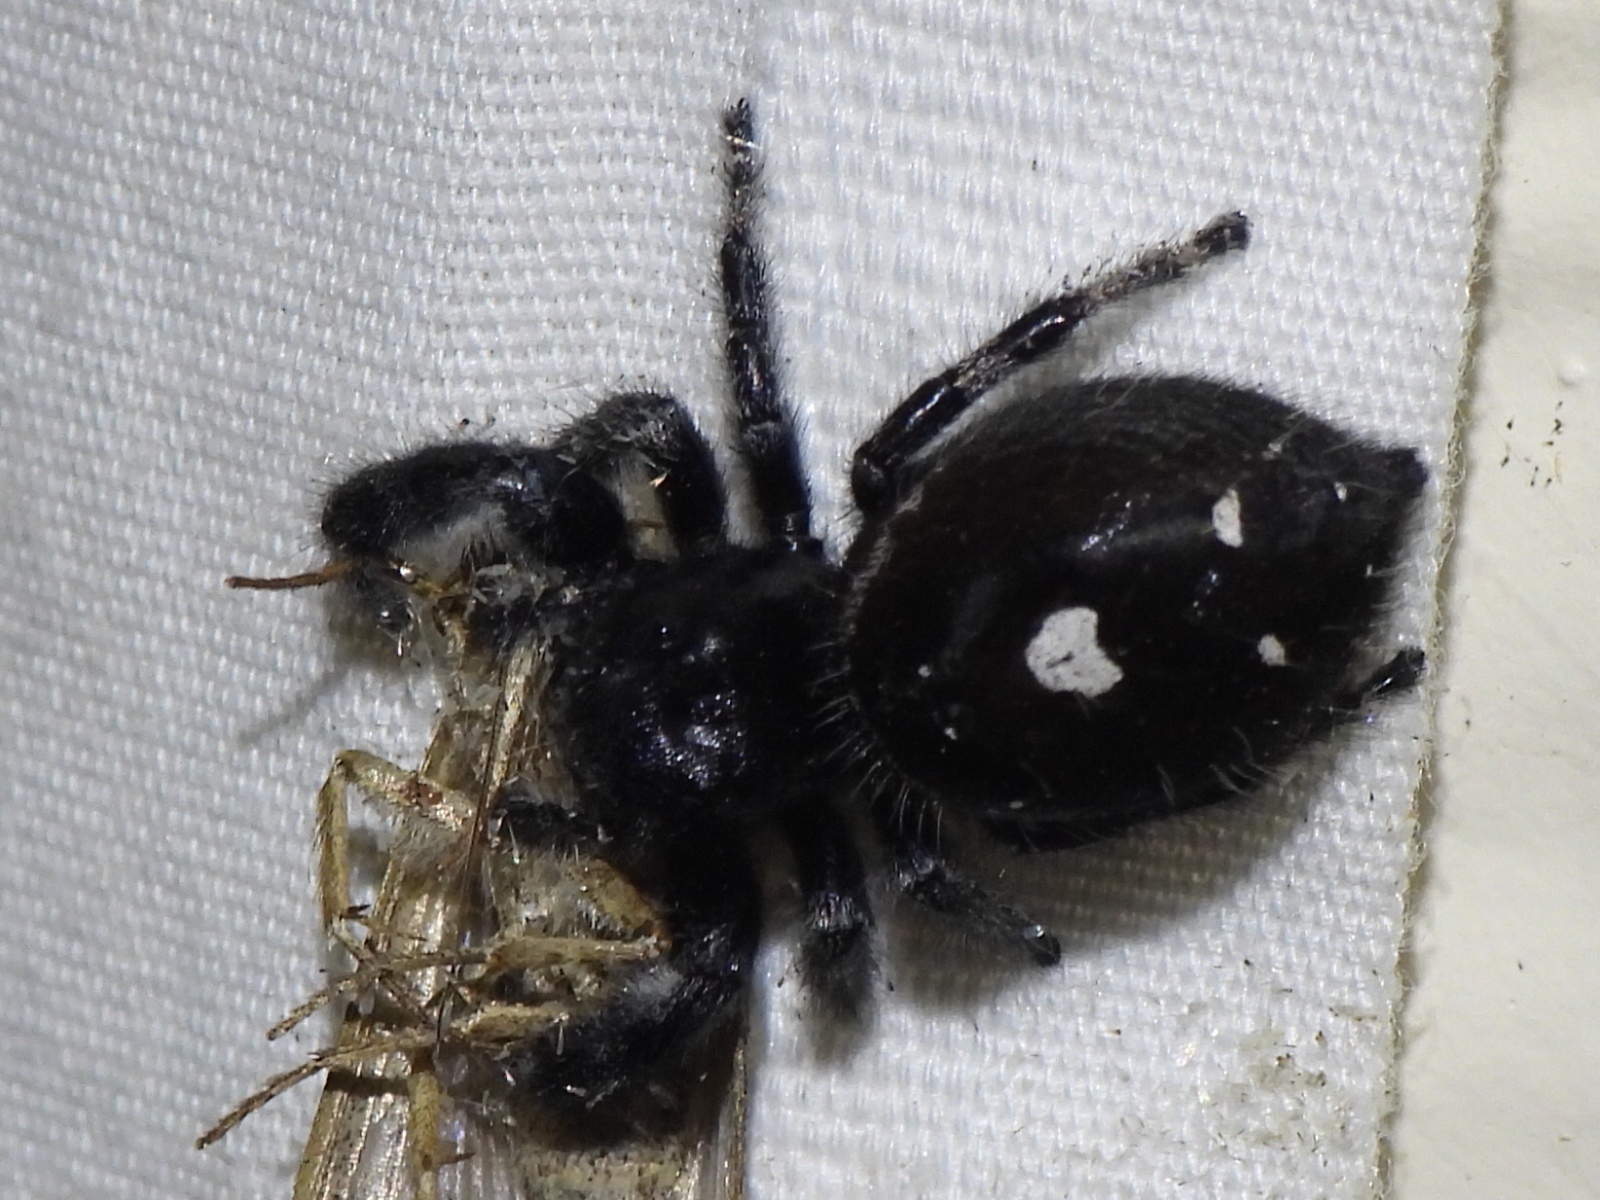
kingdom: Animalia
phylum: Arthropoda
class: Arachnida
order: Araneae
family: Salticidae
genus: Phidippus
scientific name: Phidippus audax
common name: Bold jumper
